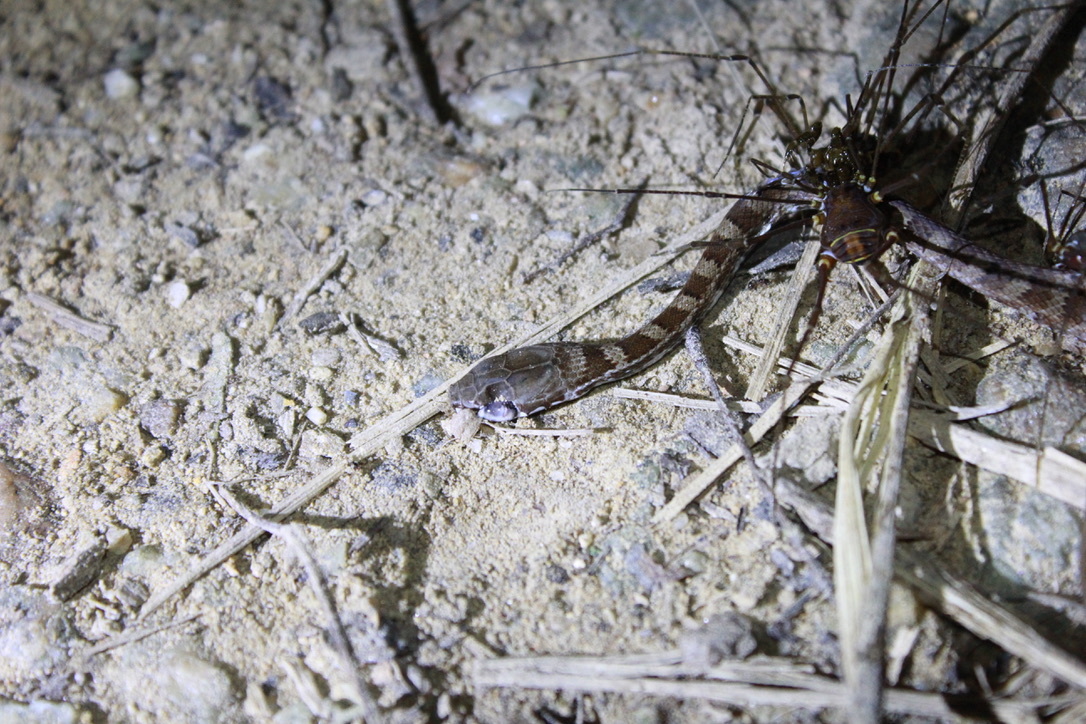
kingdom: Animalia
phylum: Chordata
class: Squamata
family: Colubridae
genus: Mastigodryas
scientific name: Mastigodryas boddaerti
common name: Boddaert's tropical racer
